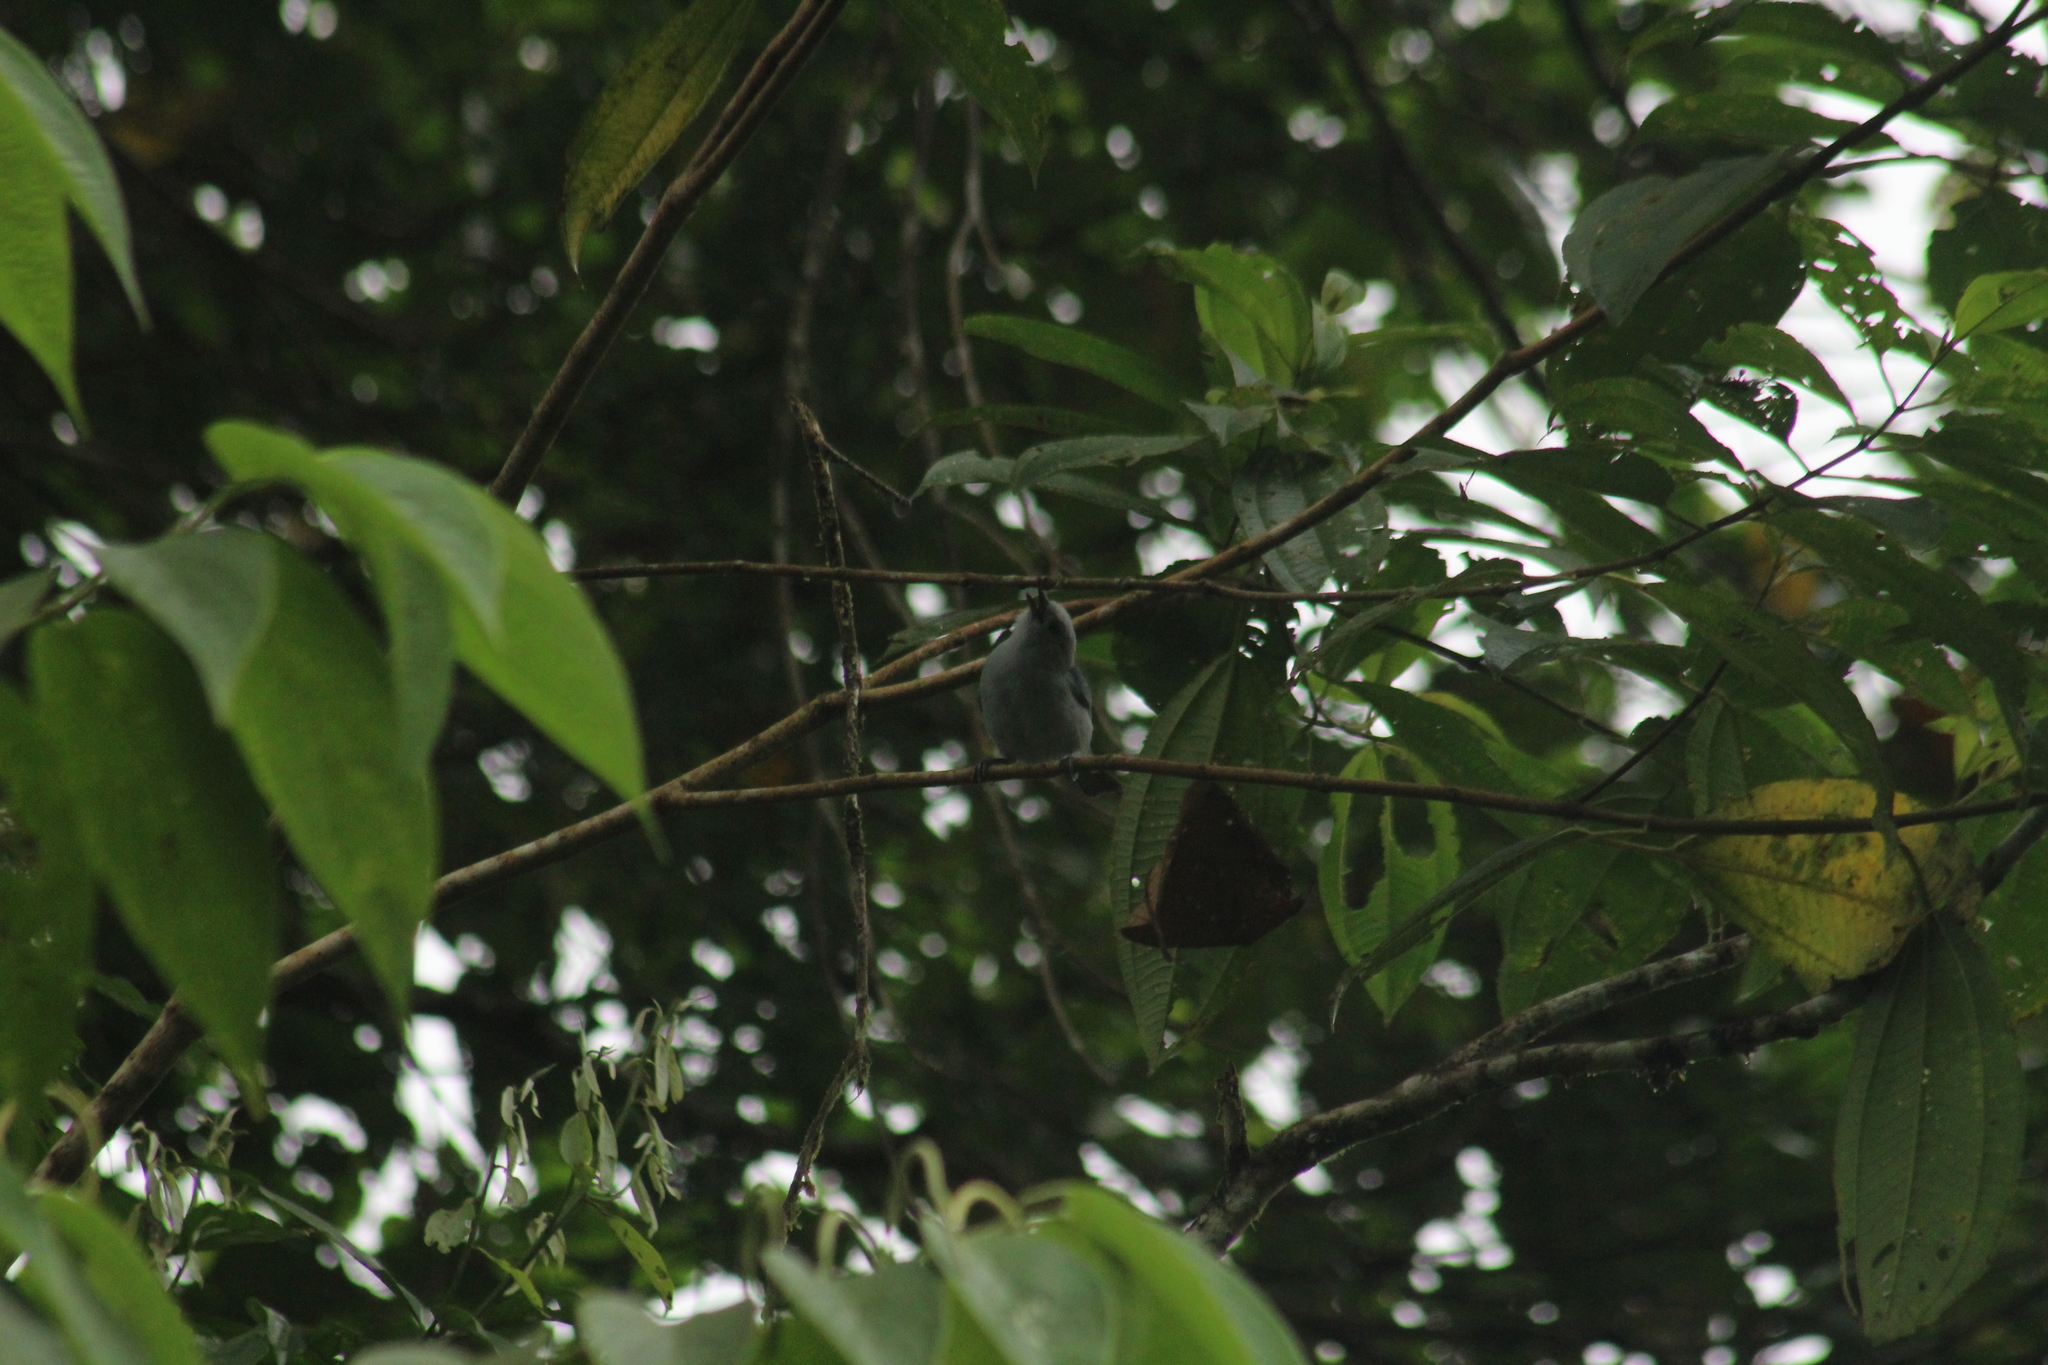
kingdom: Animalia
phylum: Chordata
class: Aves
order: Passeriformes
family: Thraupidae
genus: Thraupis
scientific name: Thraupis episcopus
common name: Blue-grey tanager
